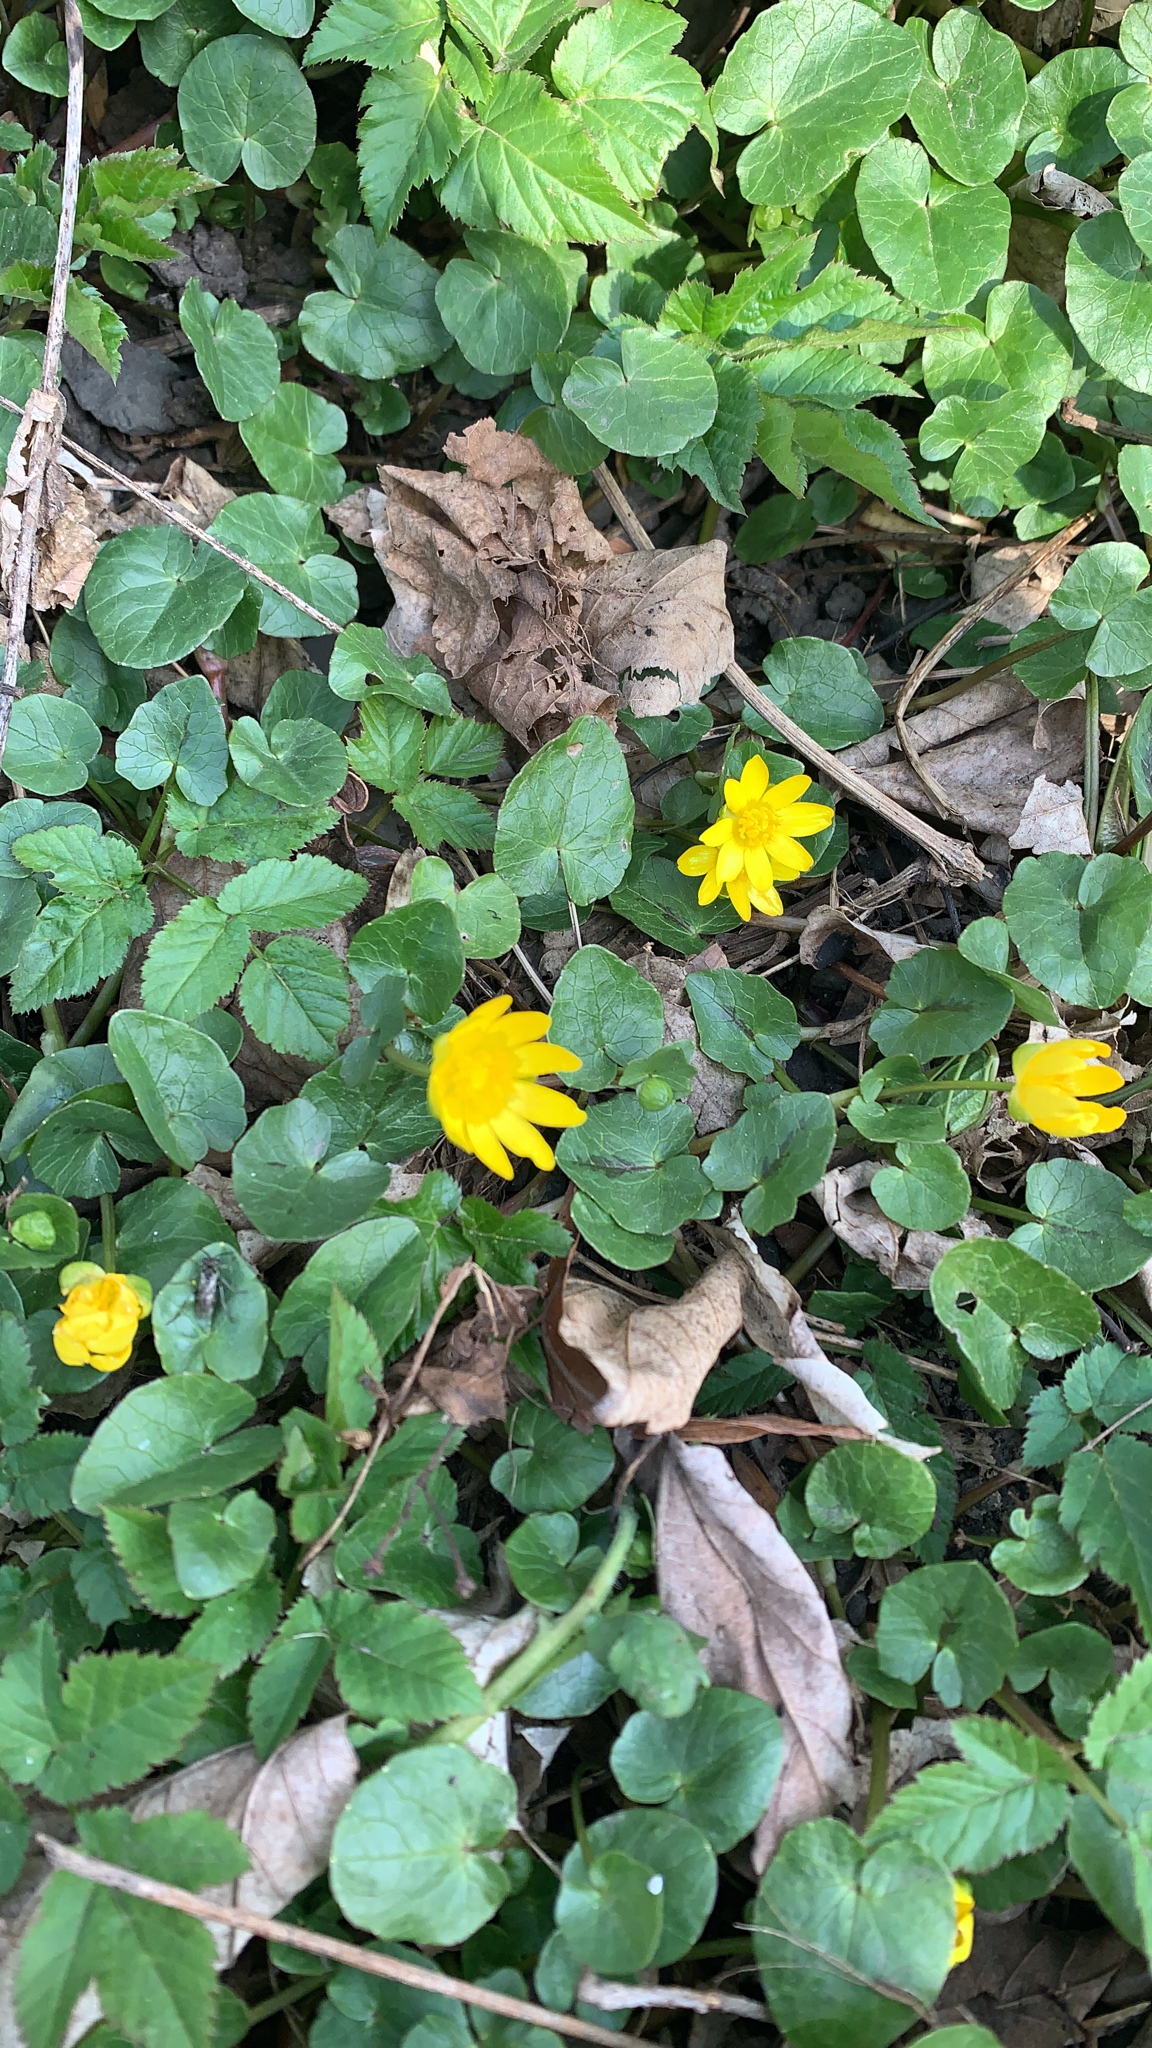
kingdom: Plantae
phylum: Tracheophyta
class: Magnoliopsida
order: Ranunculales
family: Ranunculaceae
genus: Ficaria
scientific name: Ficaria verna
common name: Lesser celandine
